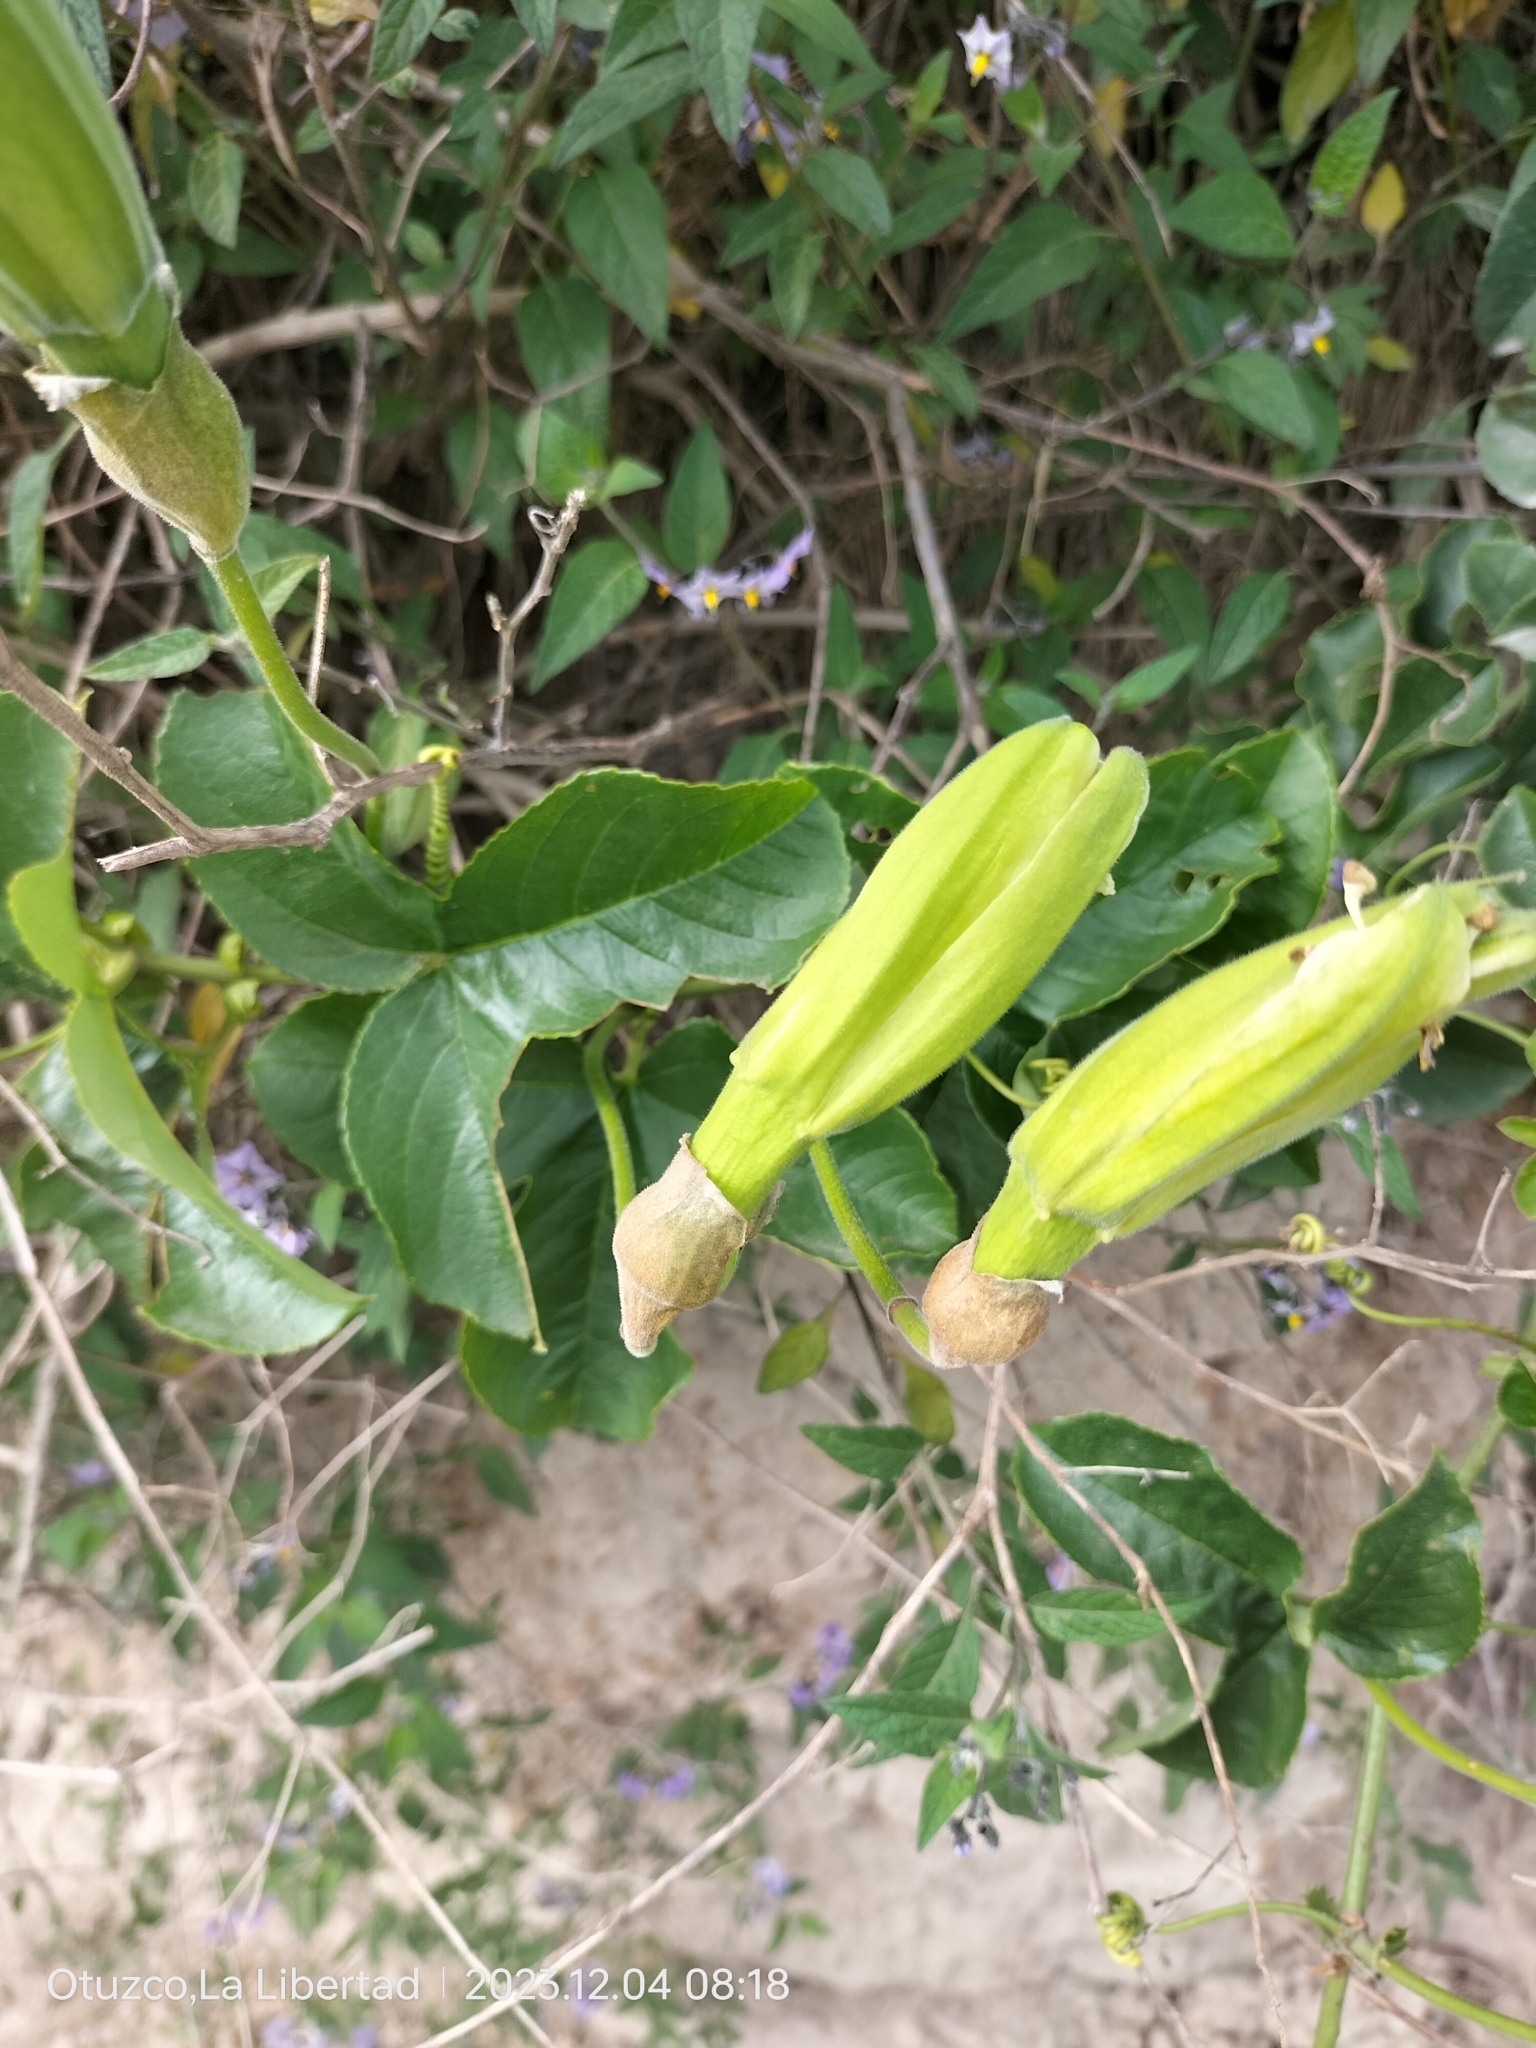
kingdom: Plantae
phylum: Tracheophyta
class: Magnoliopsida
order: Malpighiales
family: Passifloraceae
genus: Passiflora
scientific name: Passiflora peduncularis
